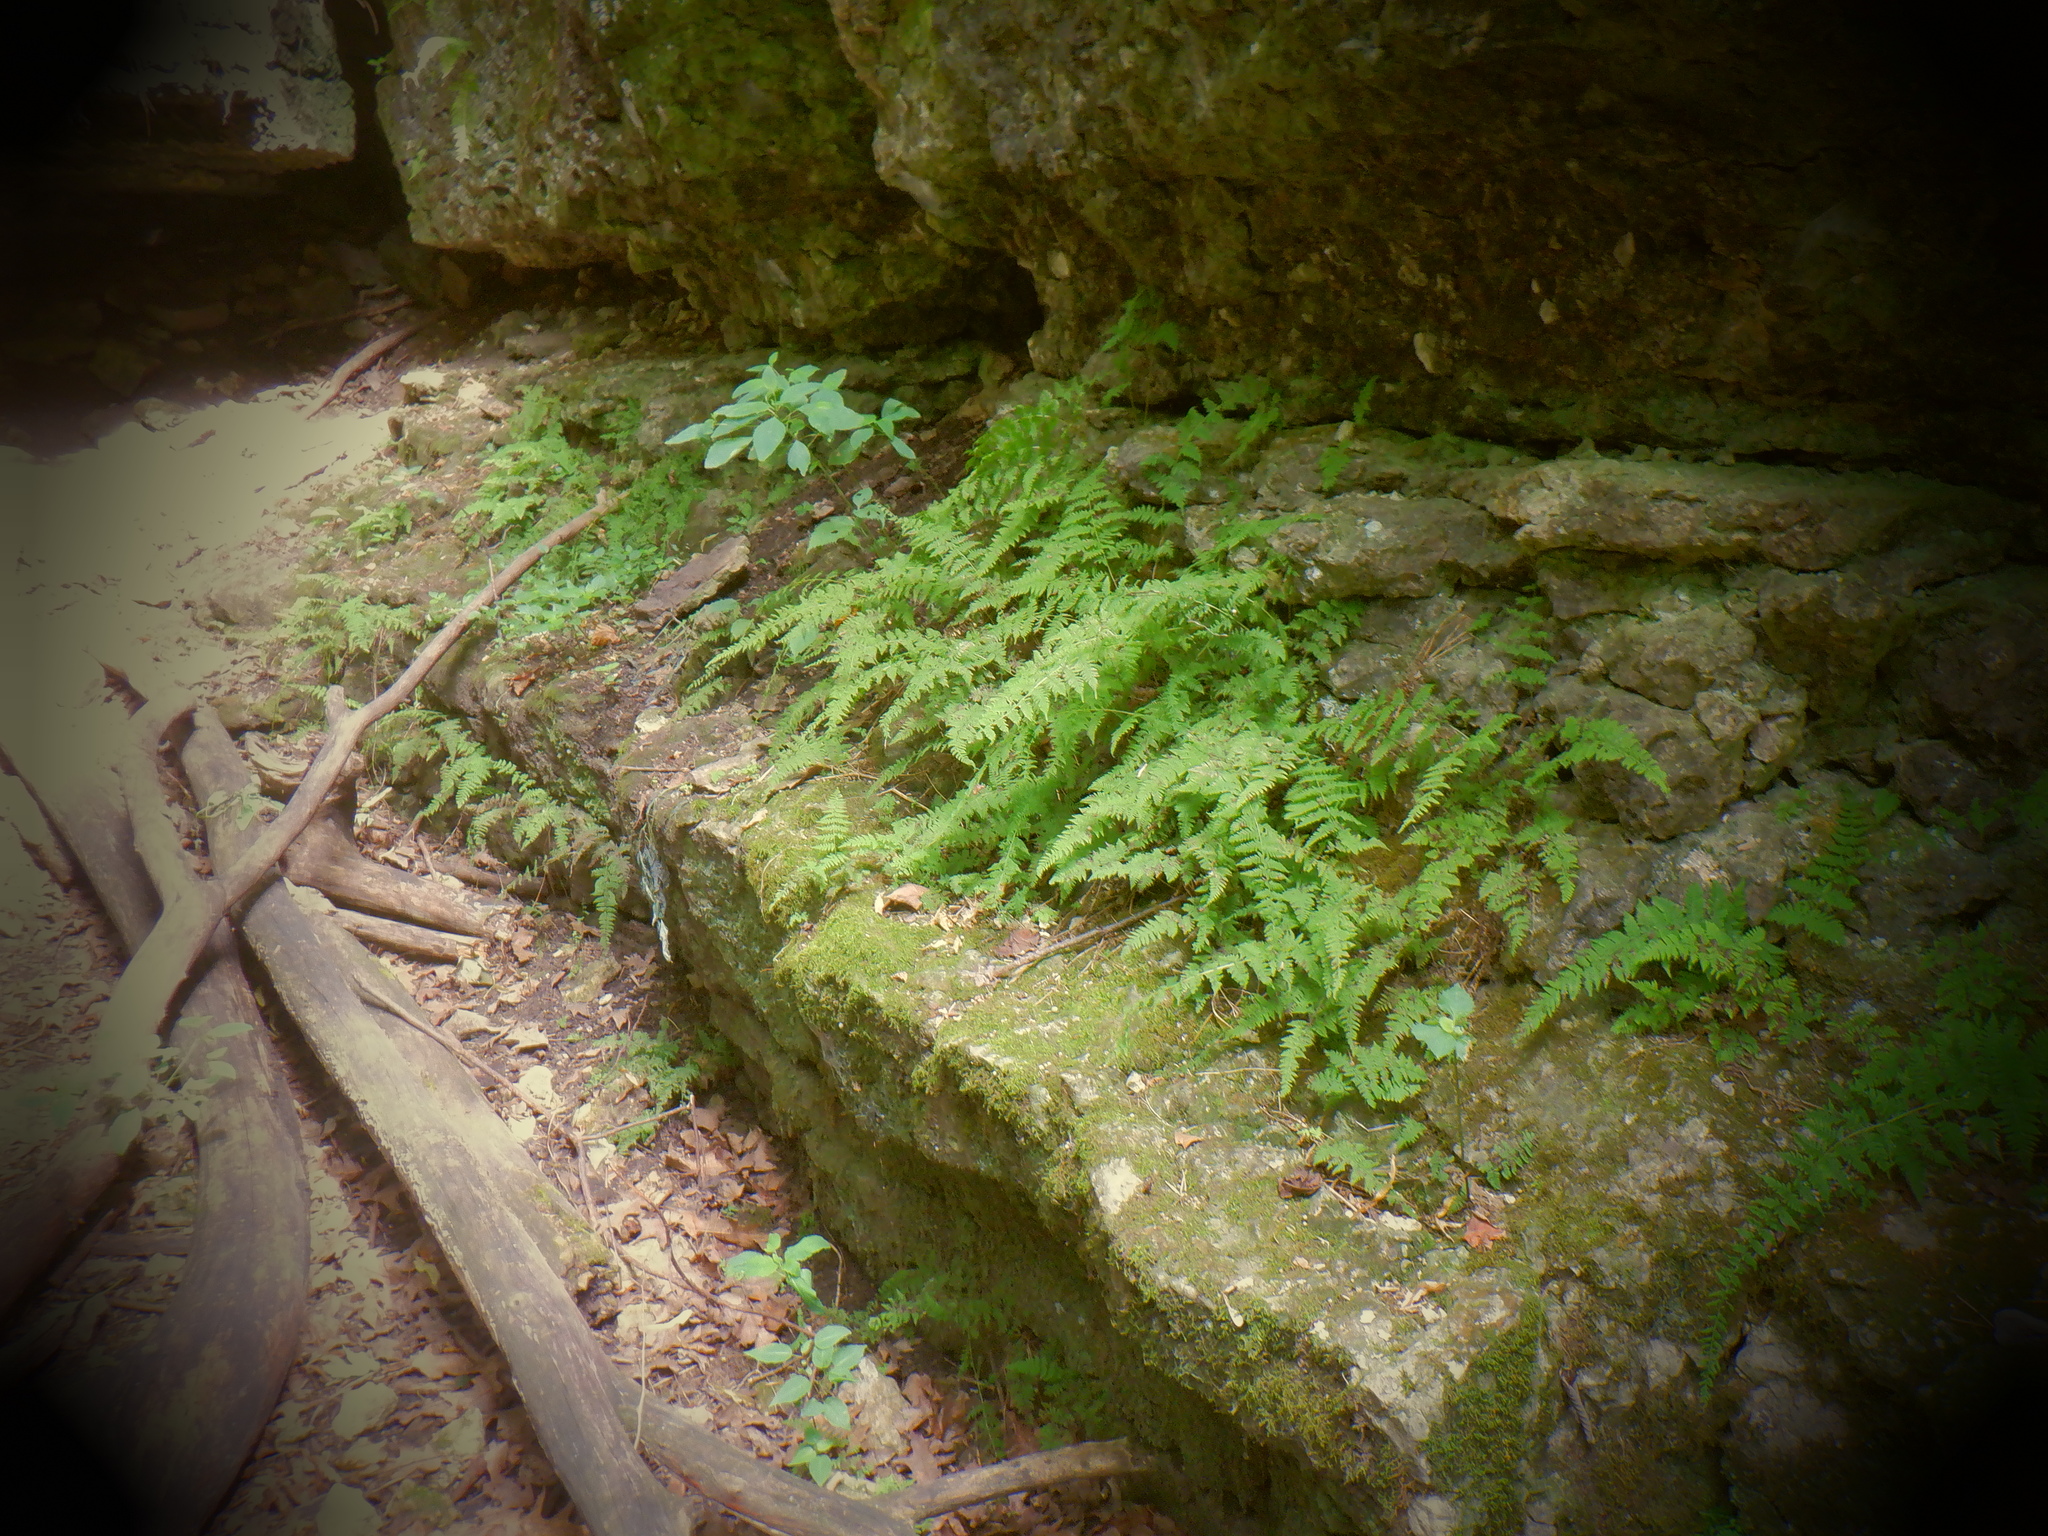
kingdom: Plantae
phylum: Tracheophyta
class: Polypodiopsida
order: Polypodiales
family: Cystopteridaceae
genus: Cystopteris
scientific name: Cystopteris bulbifera
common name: Bulblet bladder fern
